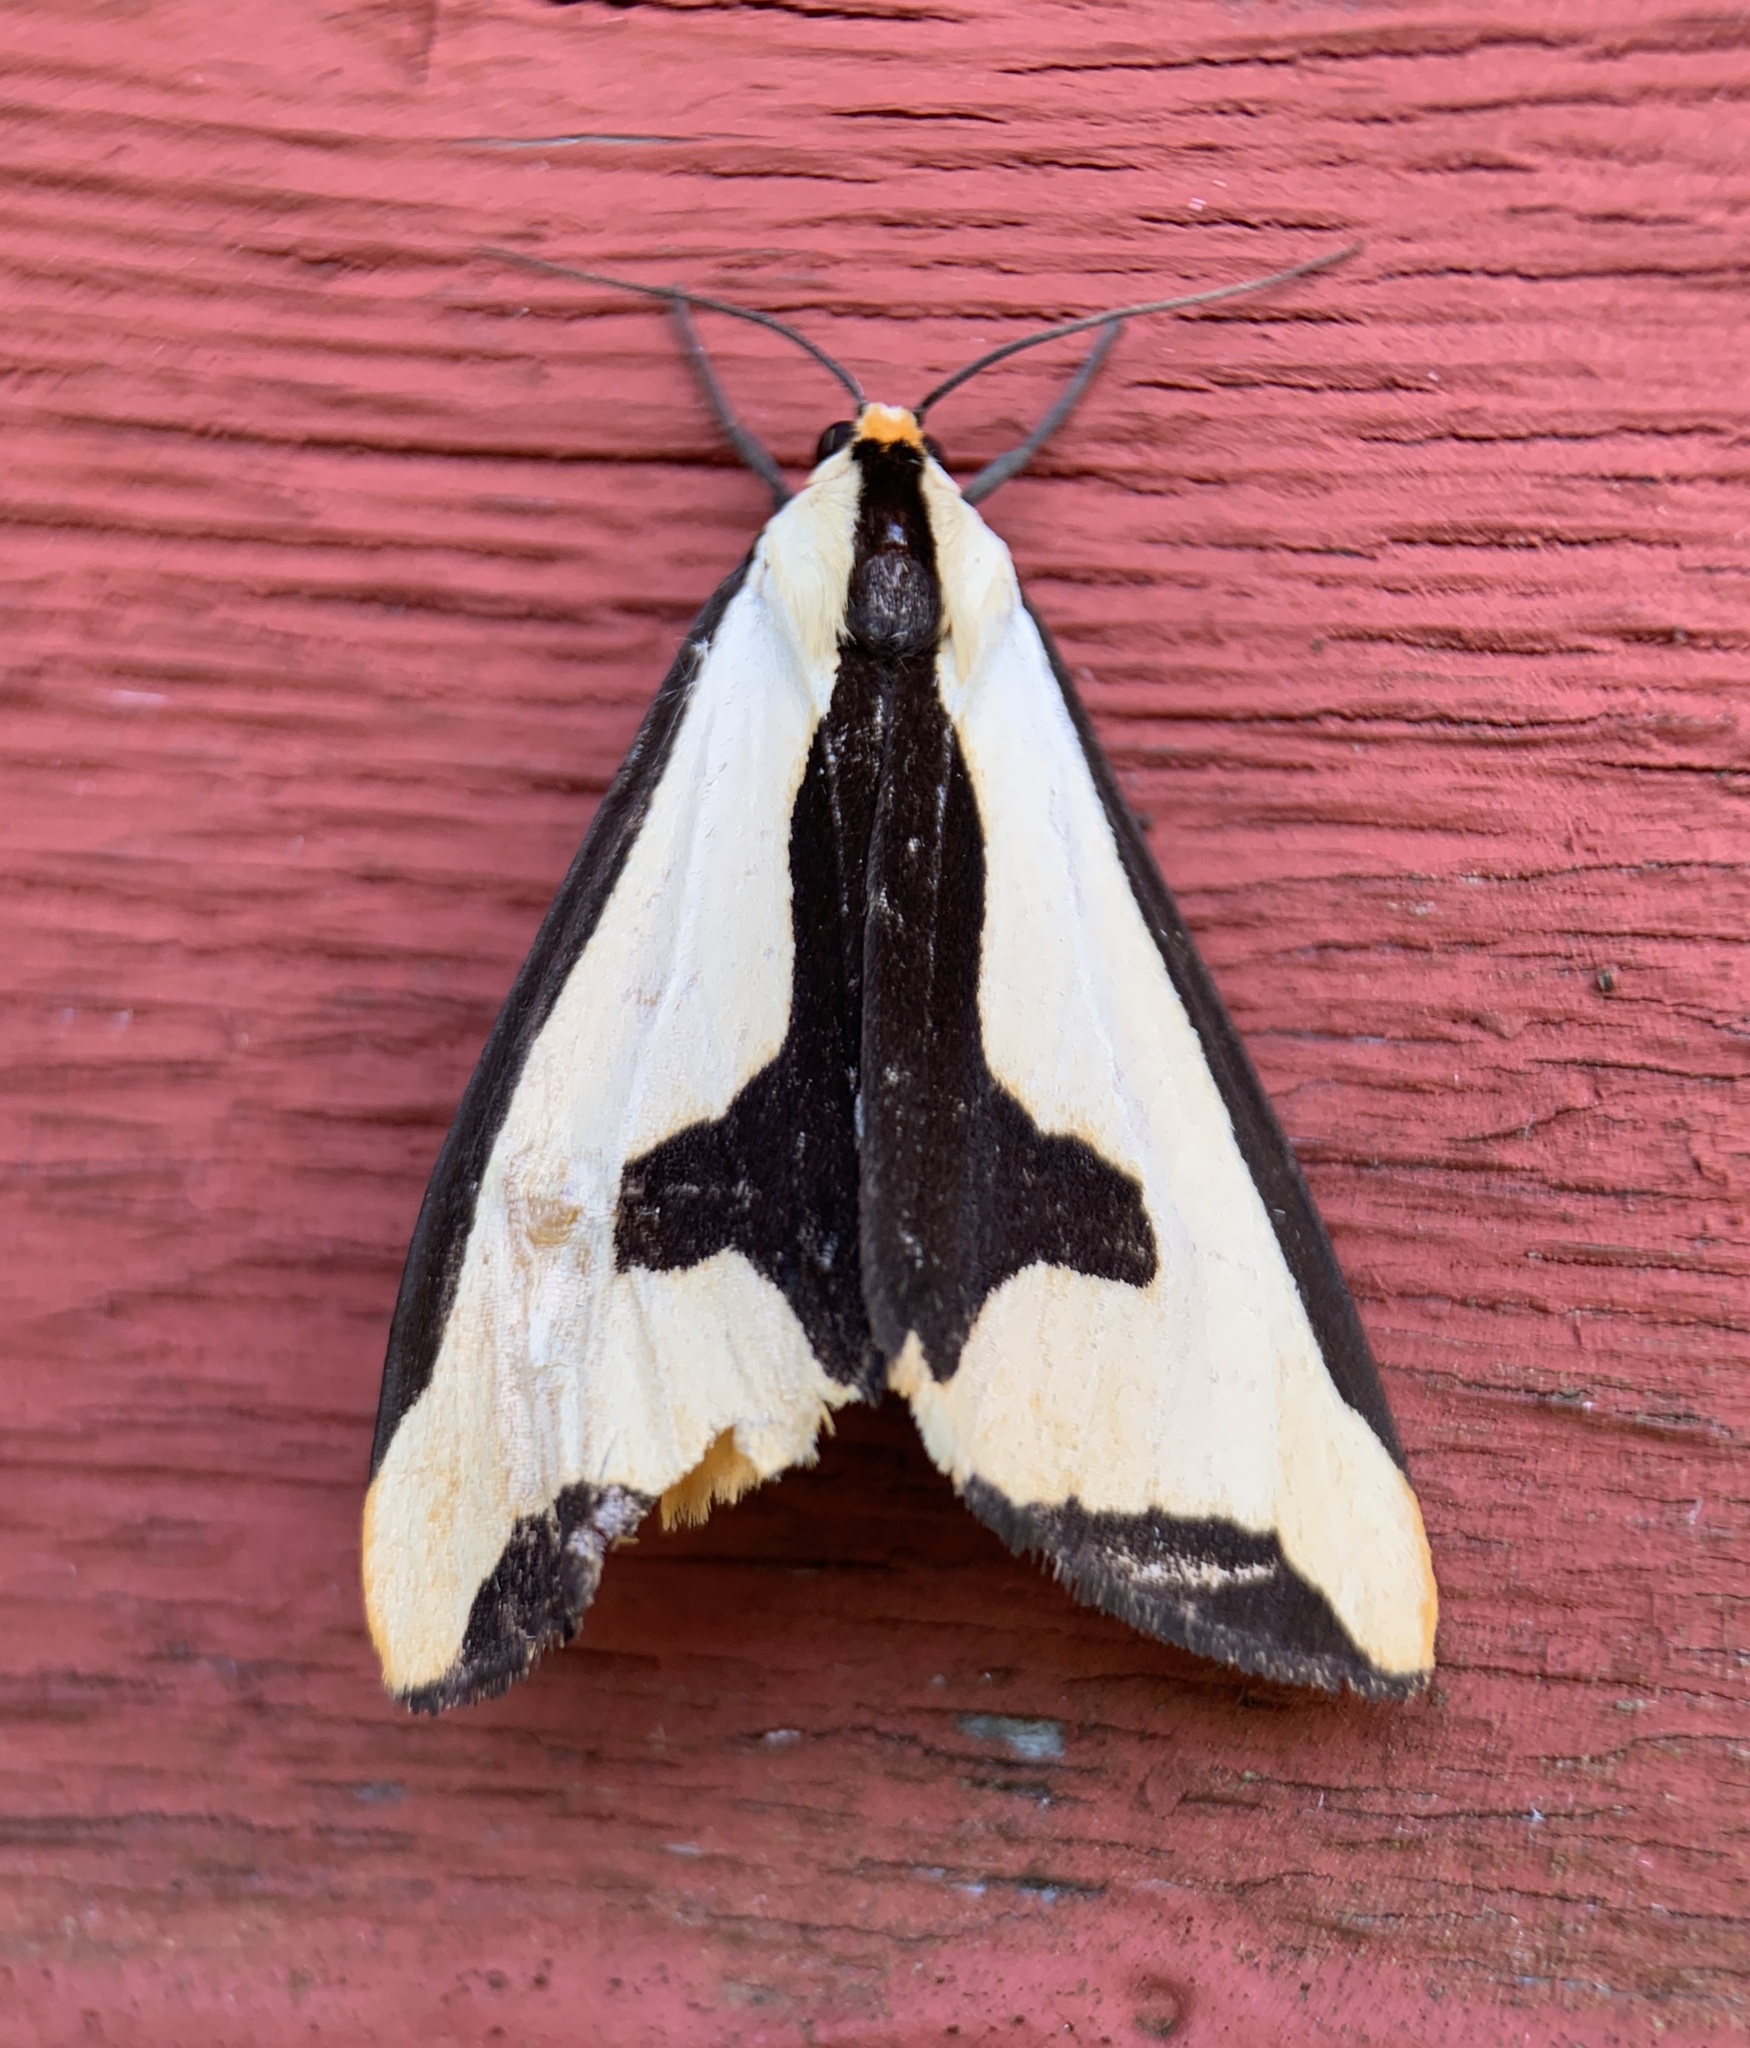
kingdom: Animalia
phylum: Arthropoda
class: Insecta
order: Lepidoptera
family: Erebidae
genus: Haploa
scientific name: Haploa clymene
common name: Clymene moth
